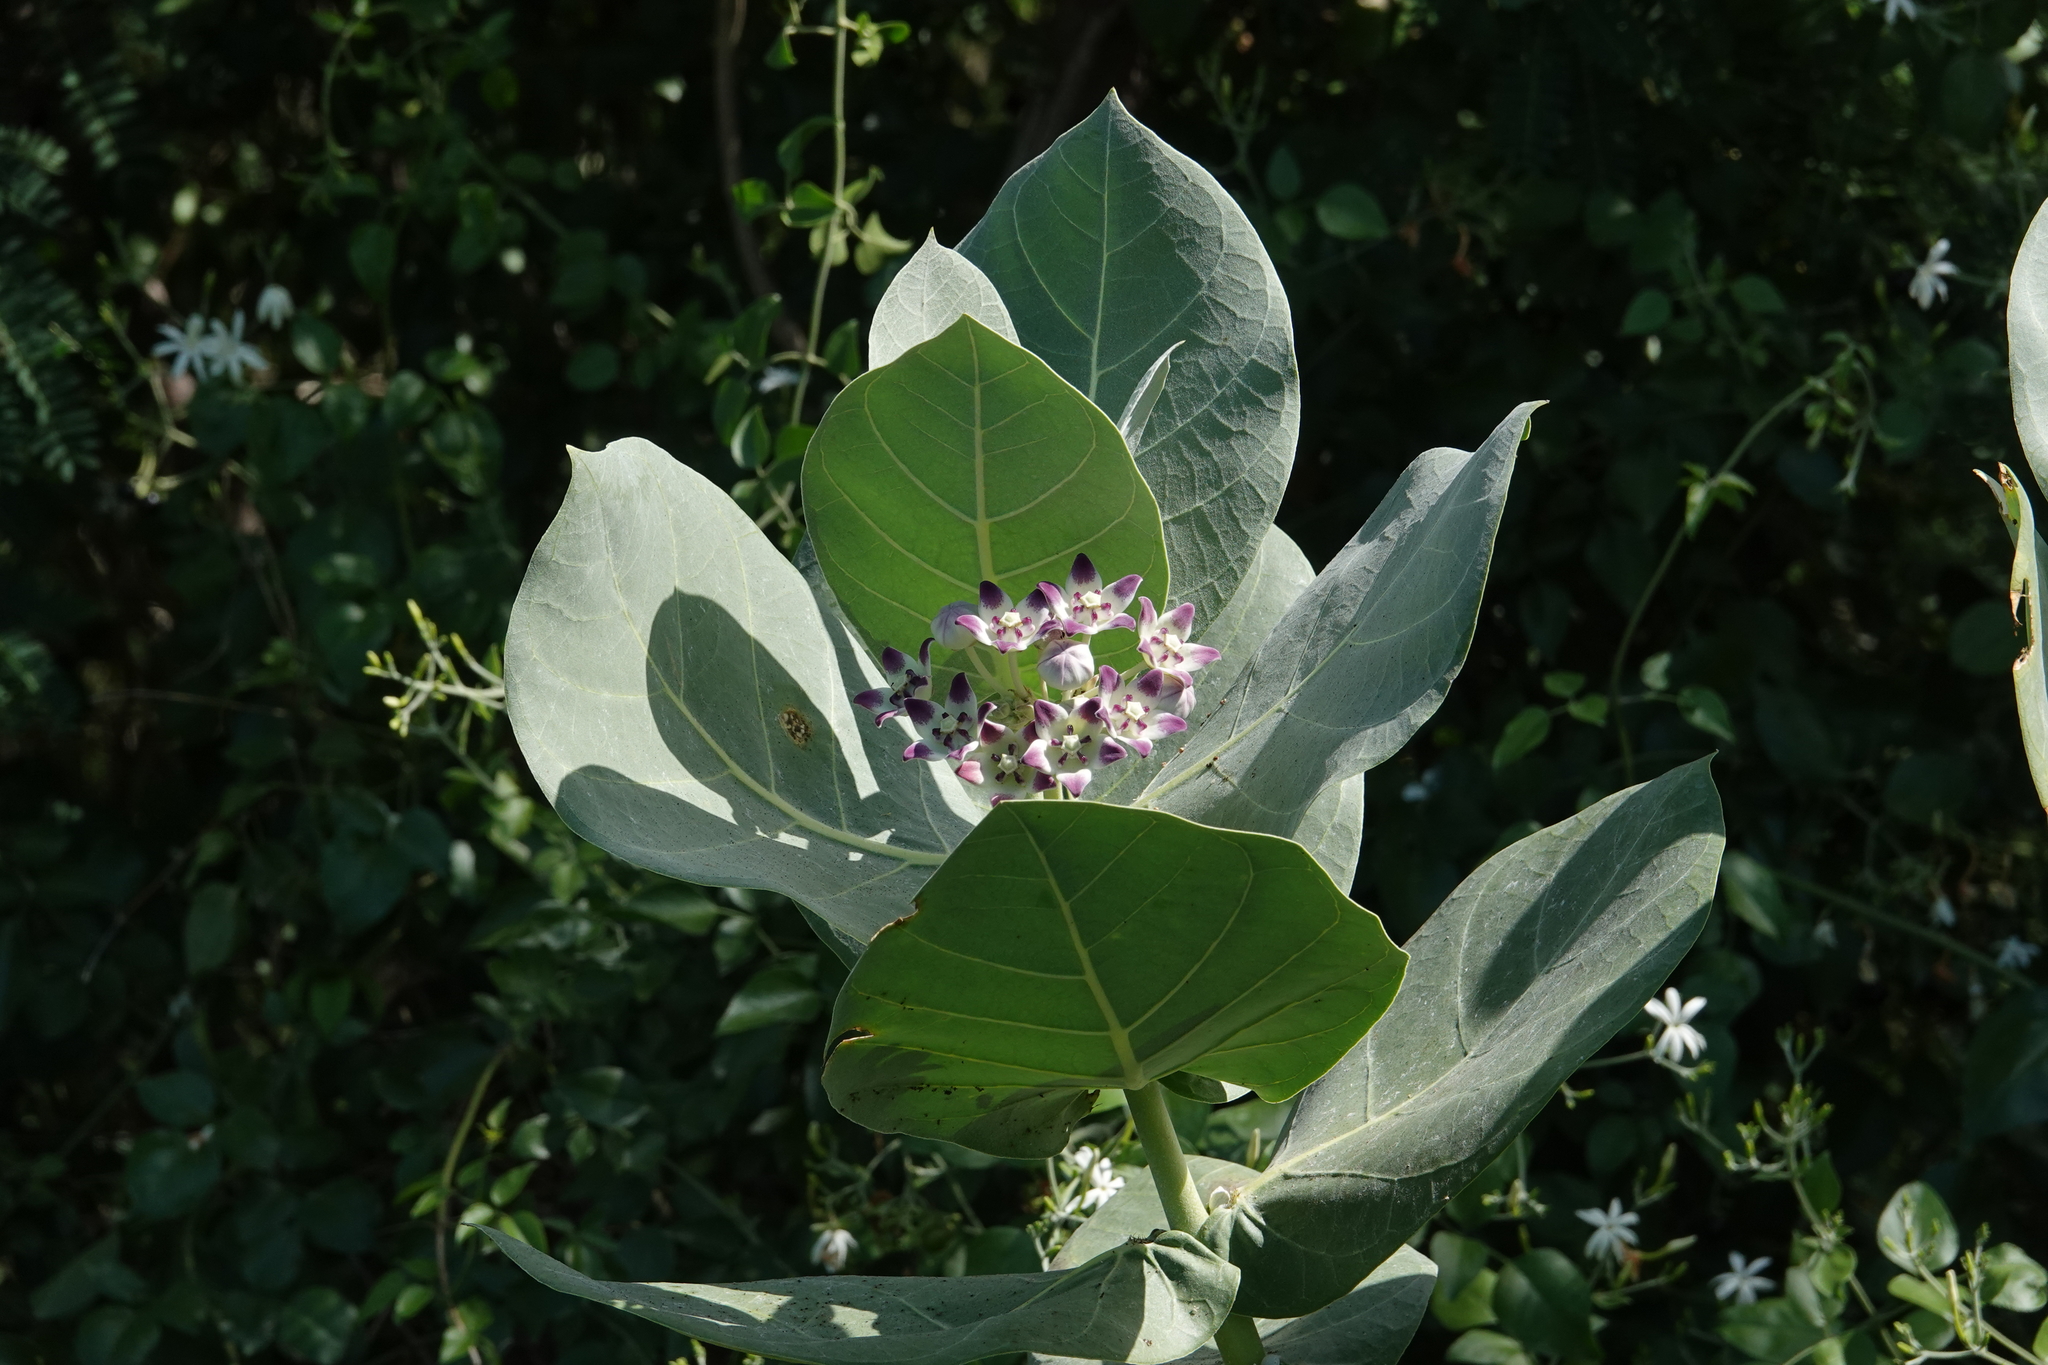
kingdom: Plantae
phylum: Tracheophyta
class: Magnoliopsida
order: Gentianales
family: Apocynaceae
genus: Calotropis
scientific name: Calotropis procera
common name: Roostertree
